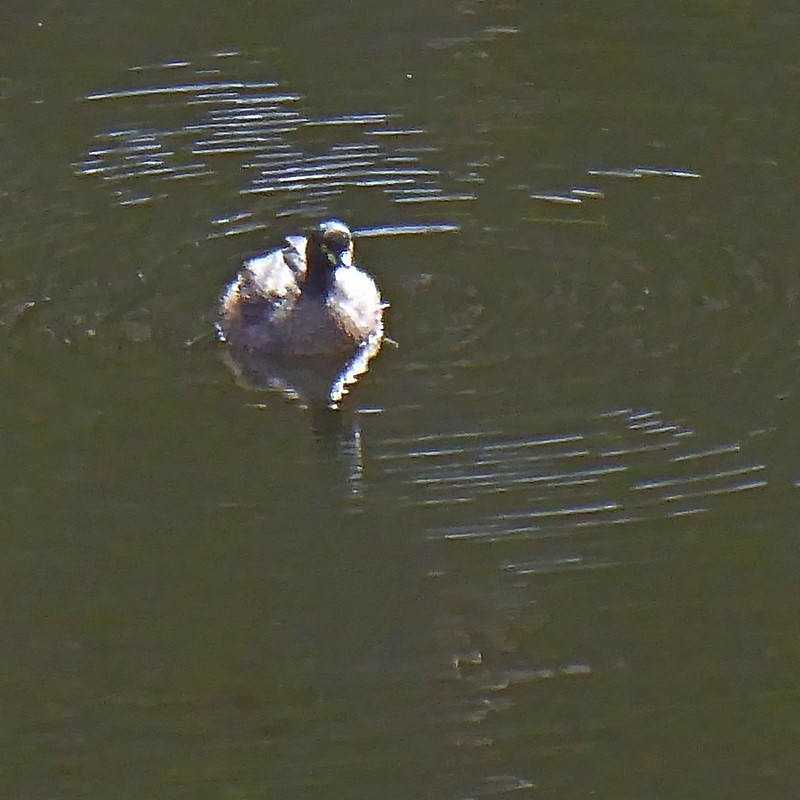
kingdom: Animalia
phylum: Chordata
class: Aves
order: Podicipediformes
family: Podicipedidae
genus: Tachybaptus
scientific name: Tachybaptus novaehollandiae
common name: Australasian grebe
